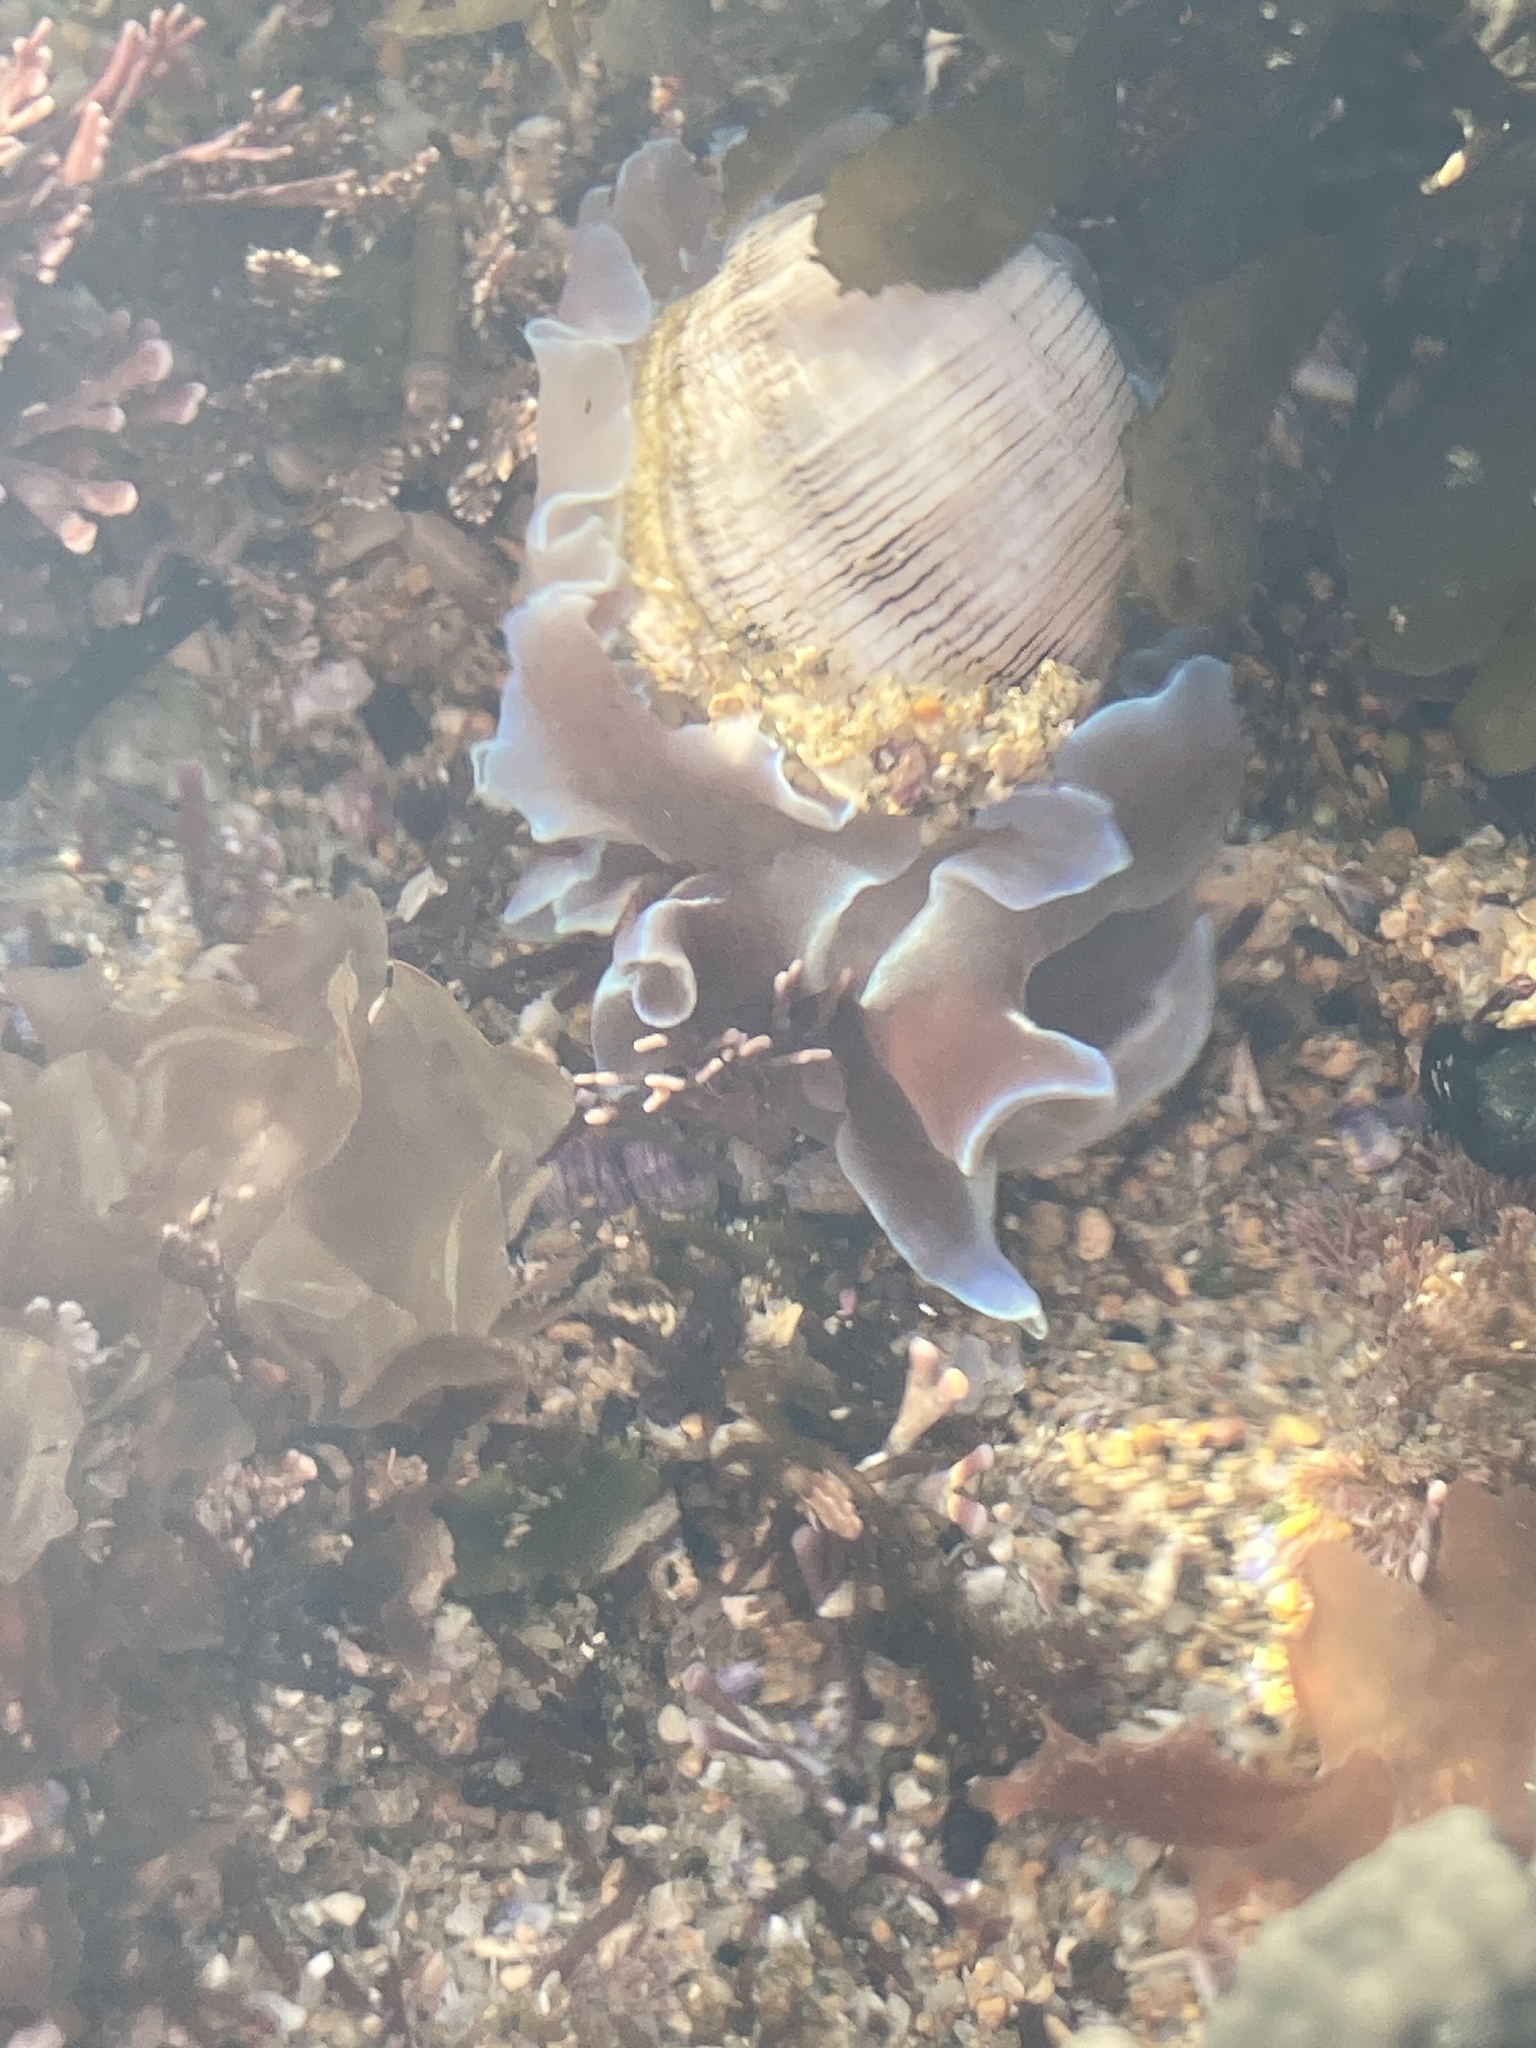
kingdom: Animalia
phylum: Mollusca
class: Gastropoda
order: Cephalaspidea
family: Aplustridae
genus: Hydatina
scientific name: Hydatina physis
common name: Brown-line paperbubble
